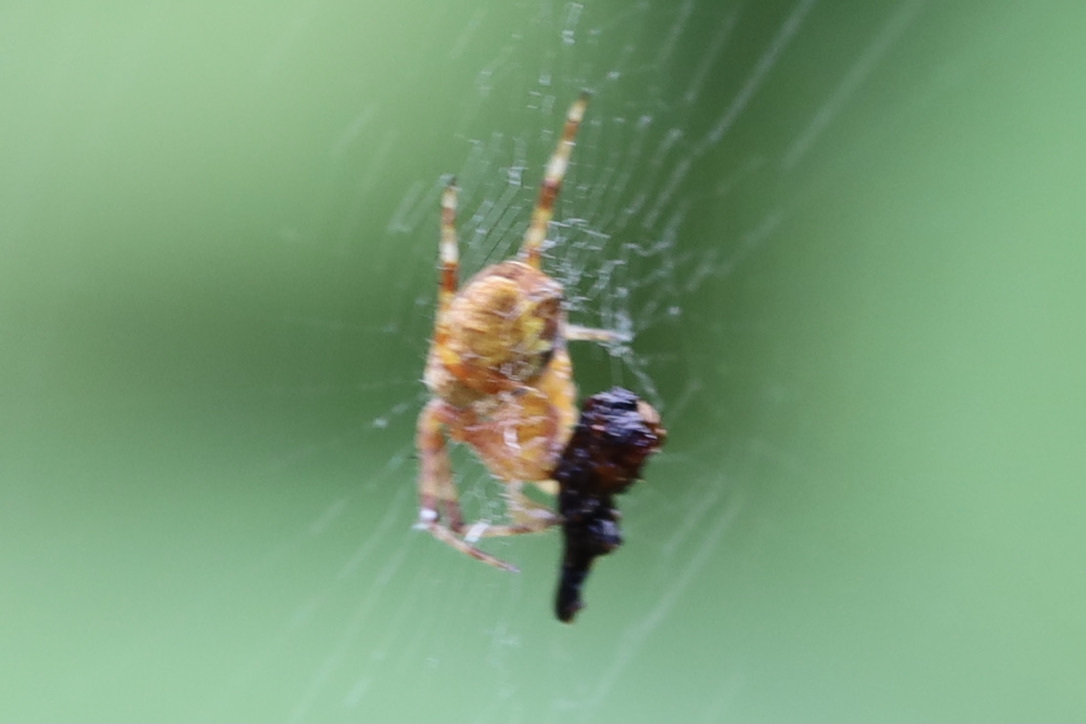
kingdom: Animalia
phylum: Arthropoda
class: Arachnida
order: Araneae
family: Araneidae
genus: Araneus
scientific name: Araneus diadematus
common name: Cross orbweaver
